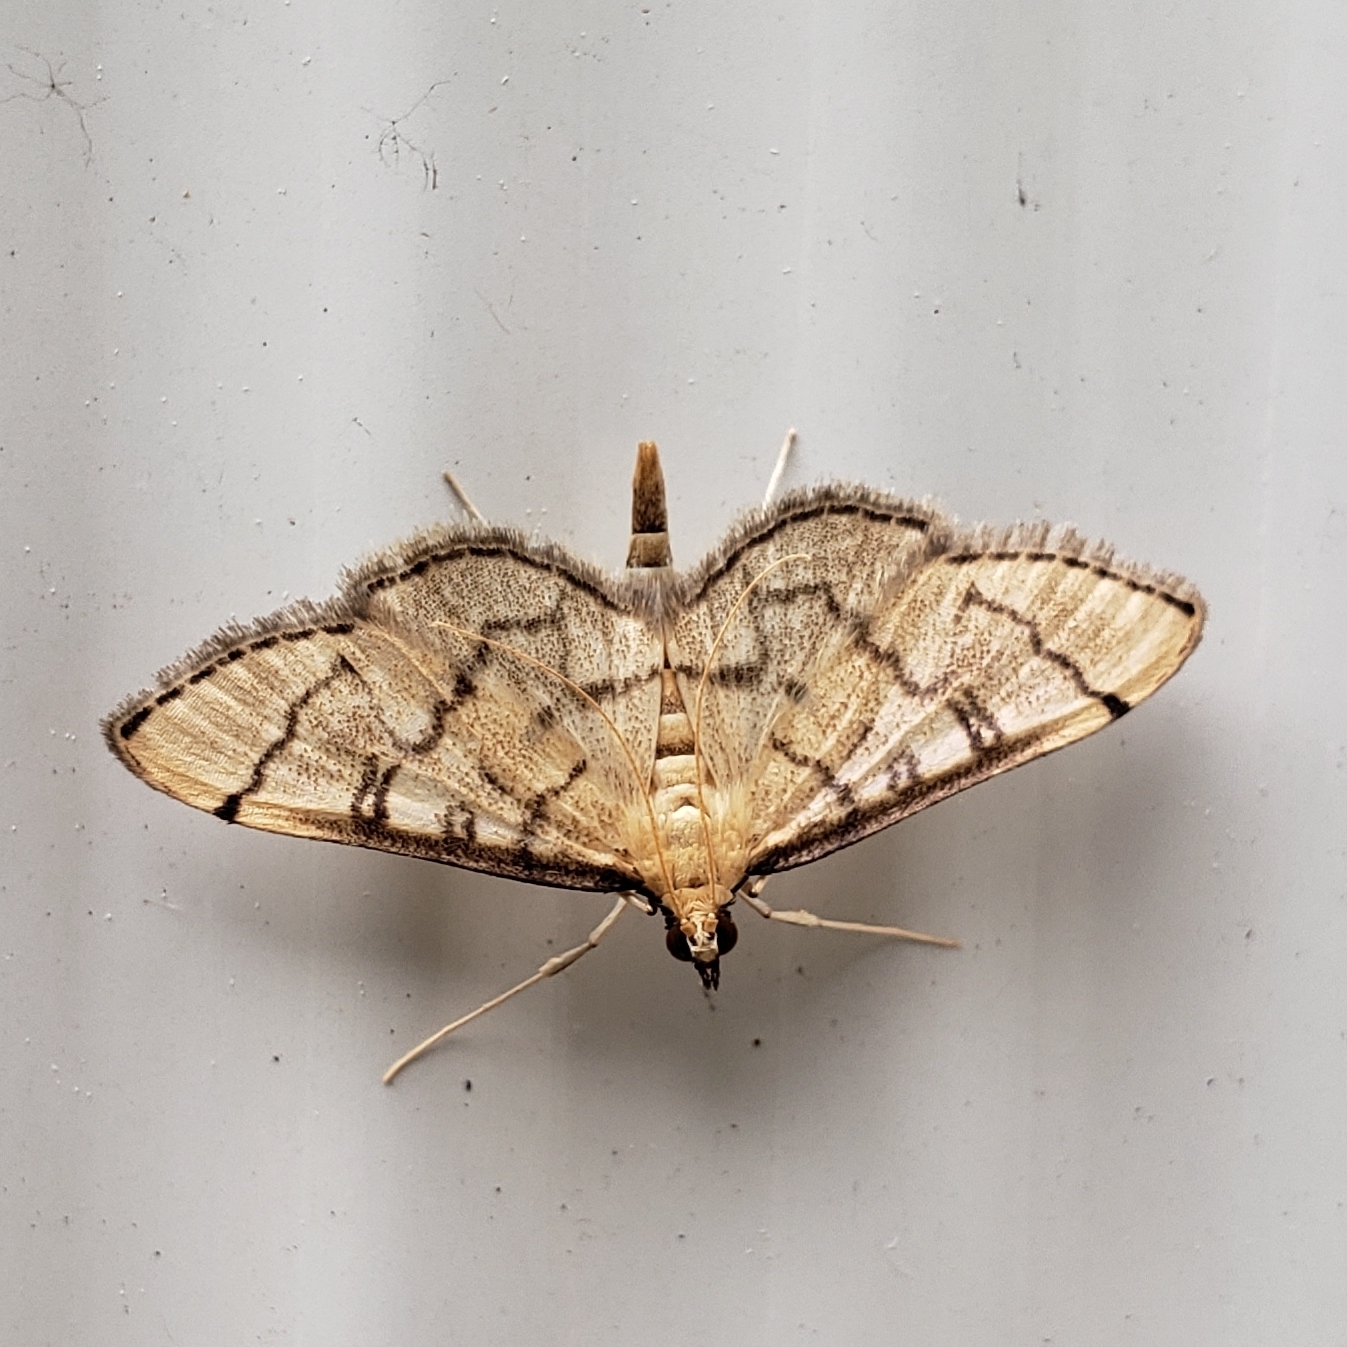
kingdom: Animalia
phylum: Arthropoda
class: Insecta
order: Lepidoptera
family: Crambidae
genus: Lamprosema
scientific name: Lamprosema Blepharomastix ranalis
